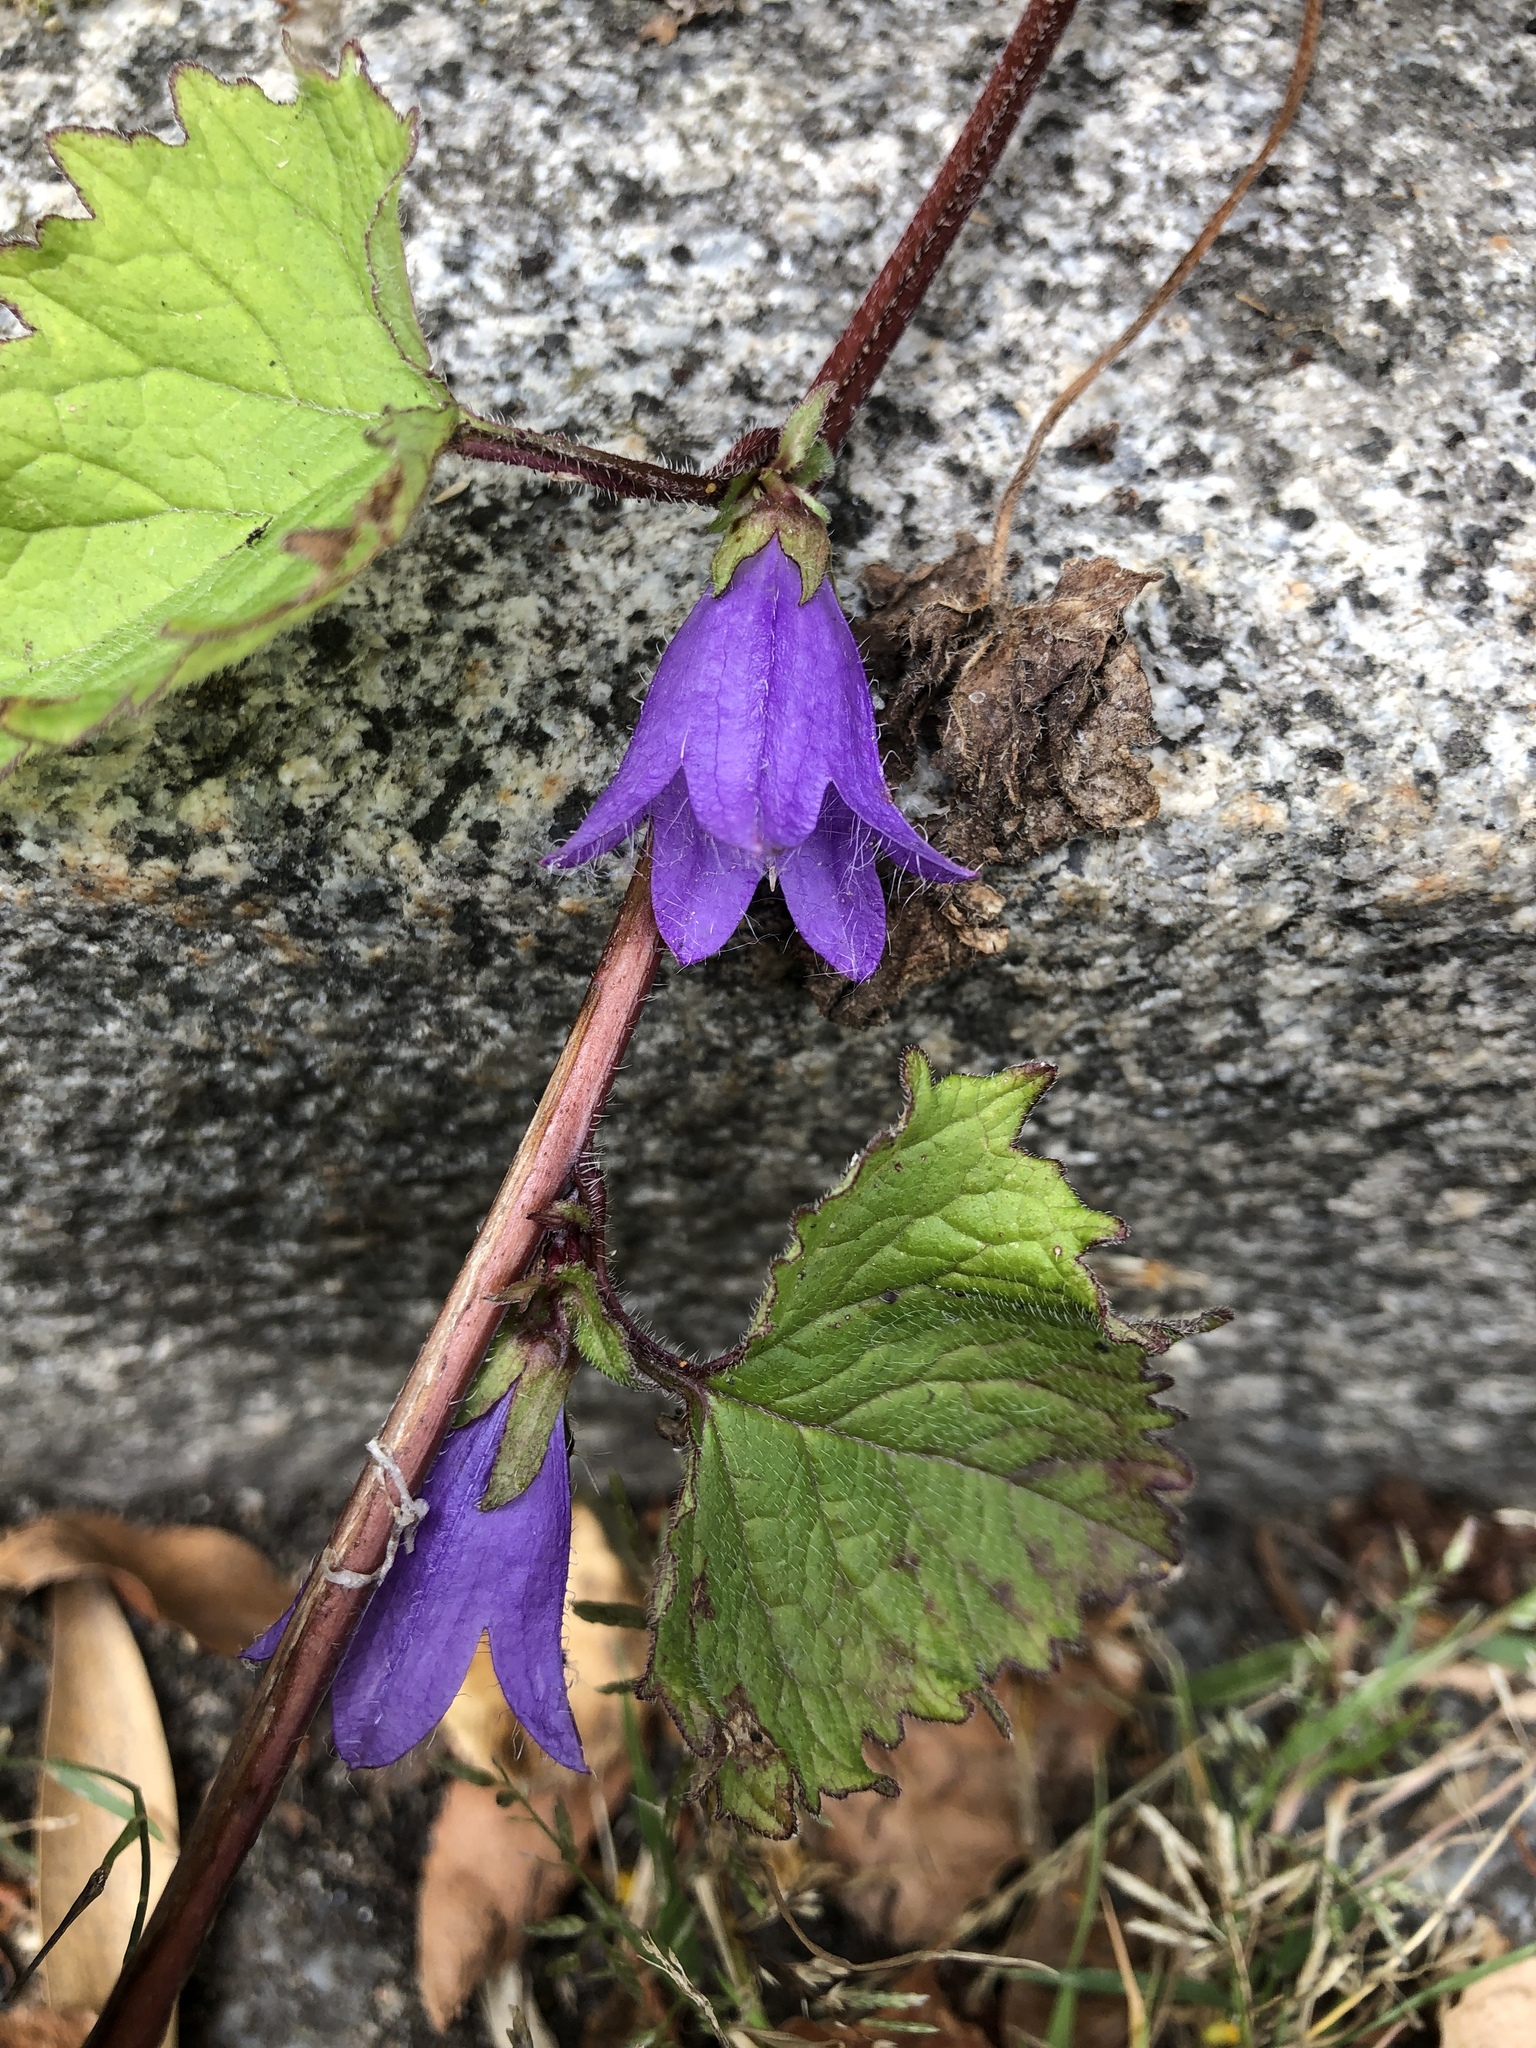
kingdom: Plantae
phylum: Tracheophyta
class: Magnoliopsida
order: Asterales
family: Campanulaceae
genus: Campanula
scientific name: Campanula trachelium
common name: Nettle-leaved bellflower
